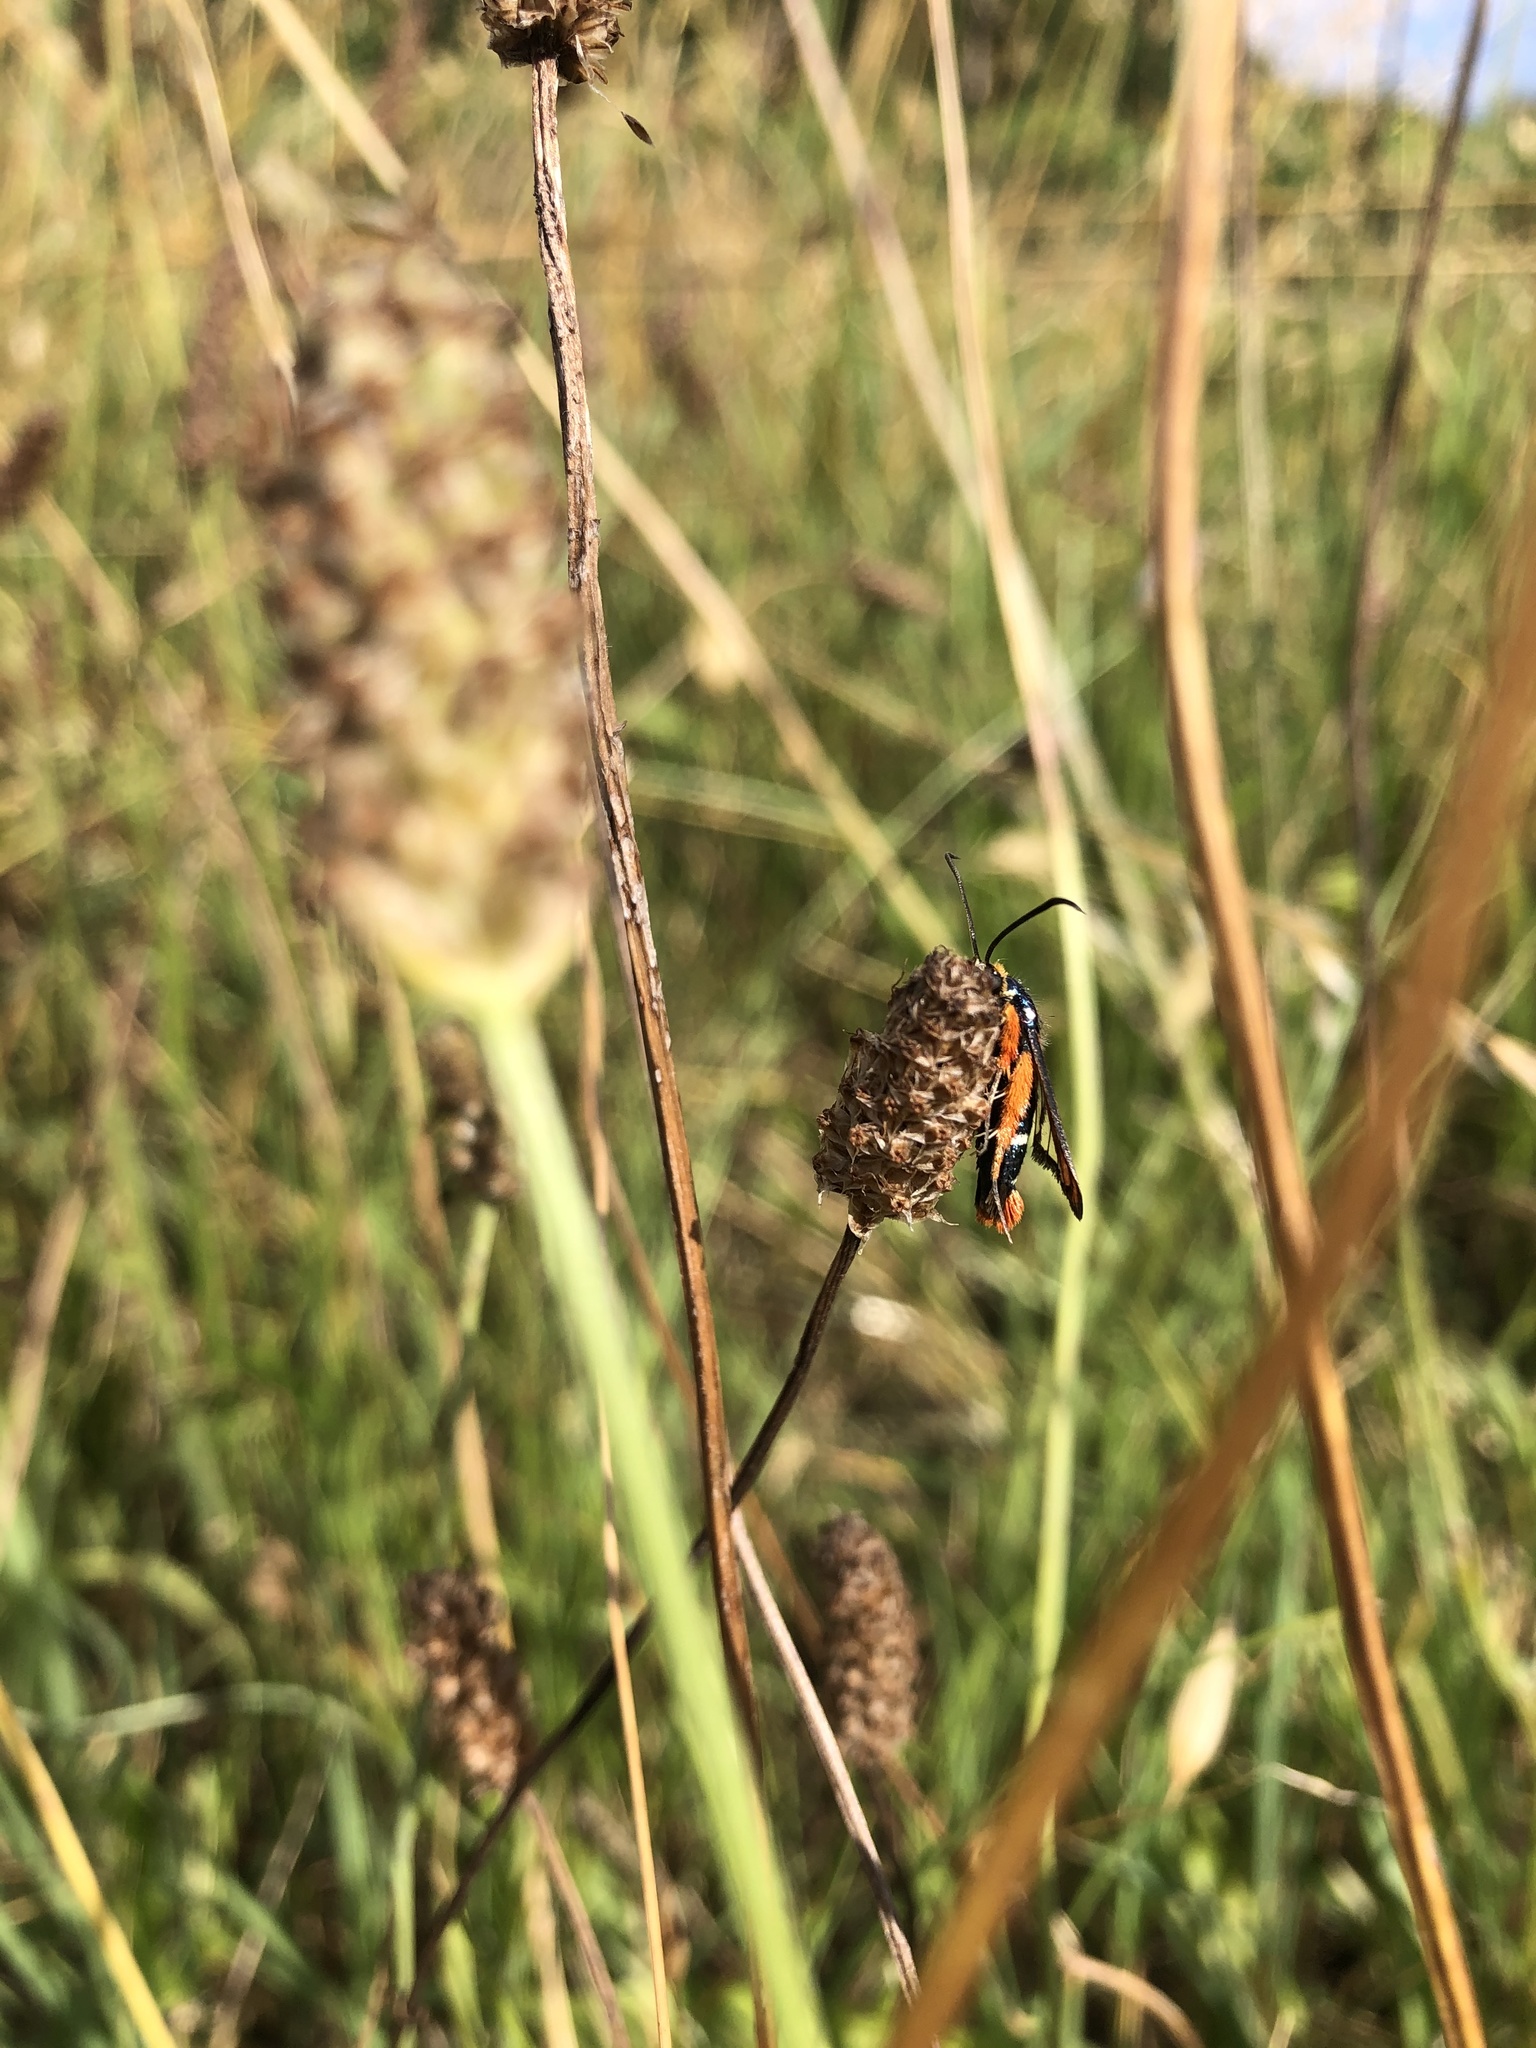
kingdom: Animalia
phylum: Arthropoda
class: Insecta
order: Lepidoptera
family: Sesiidae
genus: Pyropteron
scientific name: Pyropteron chrysidiforme
